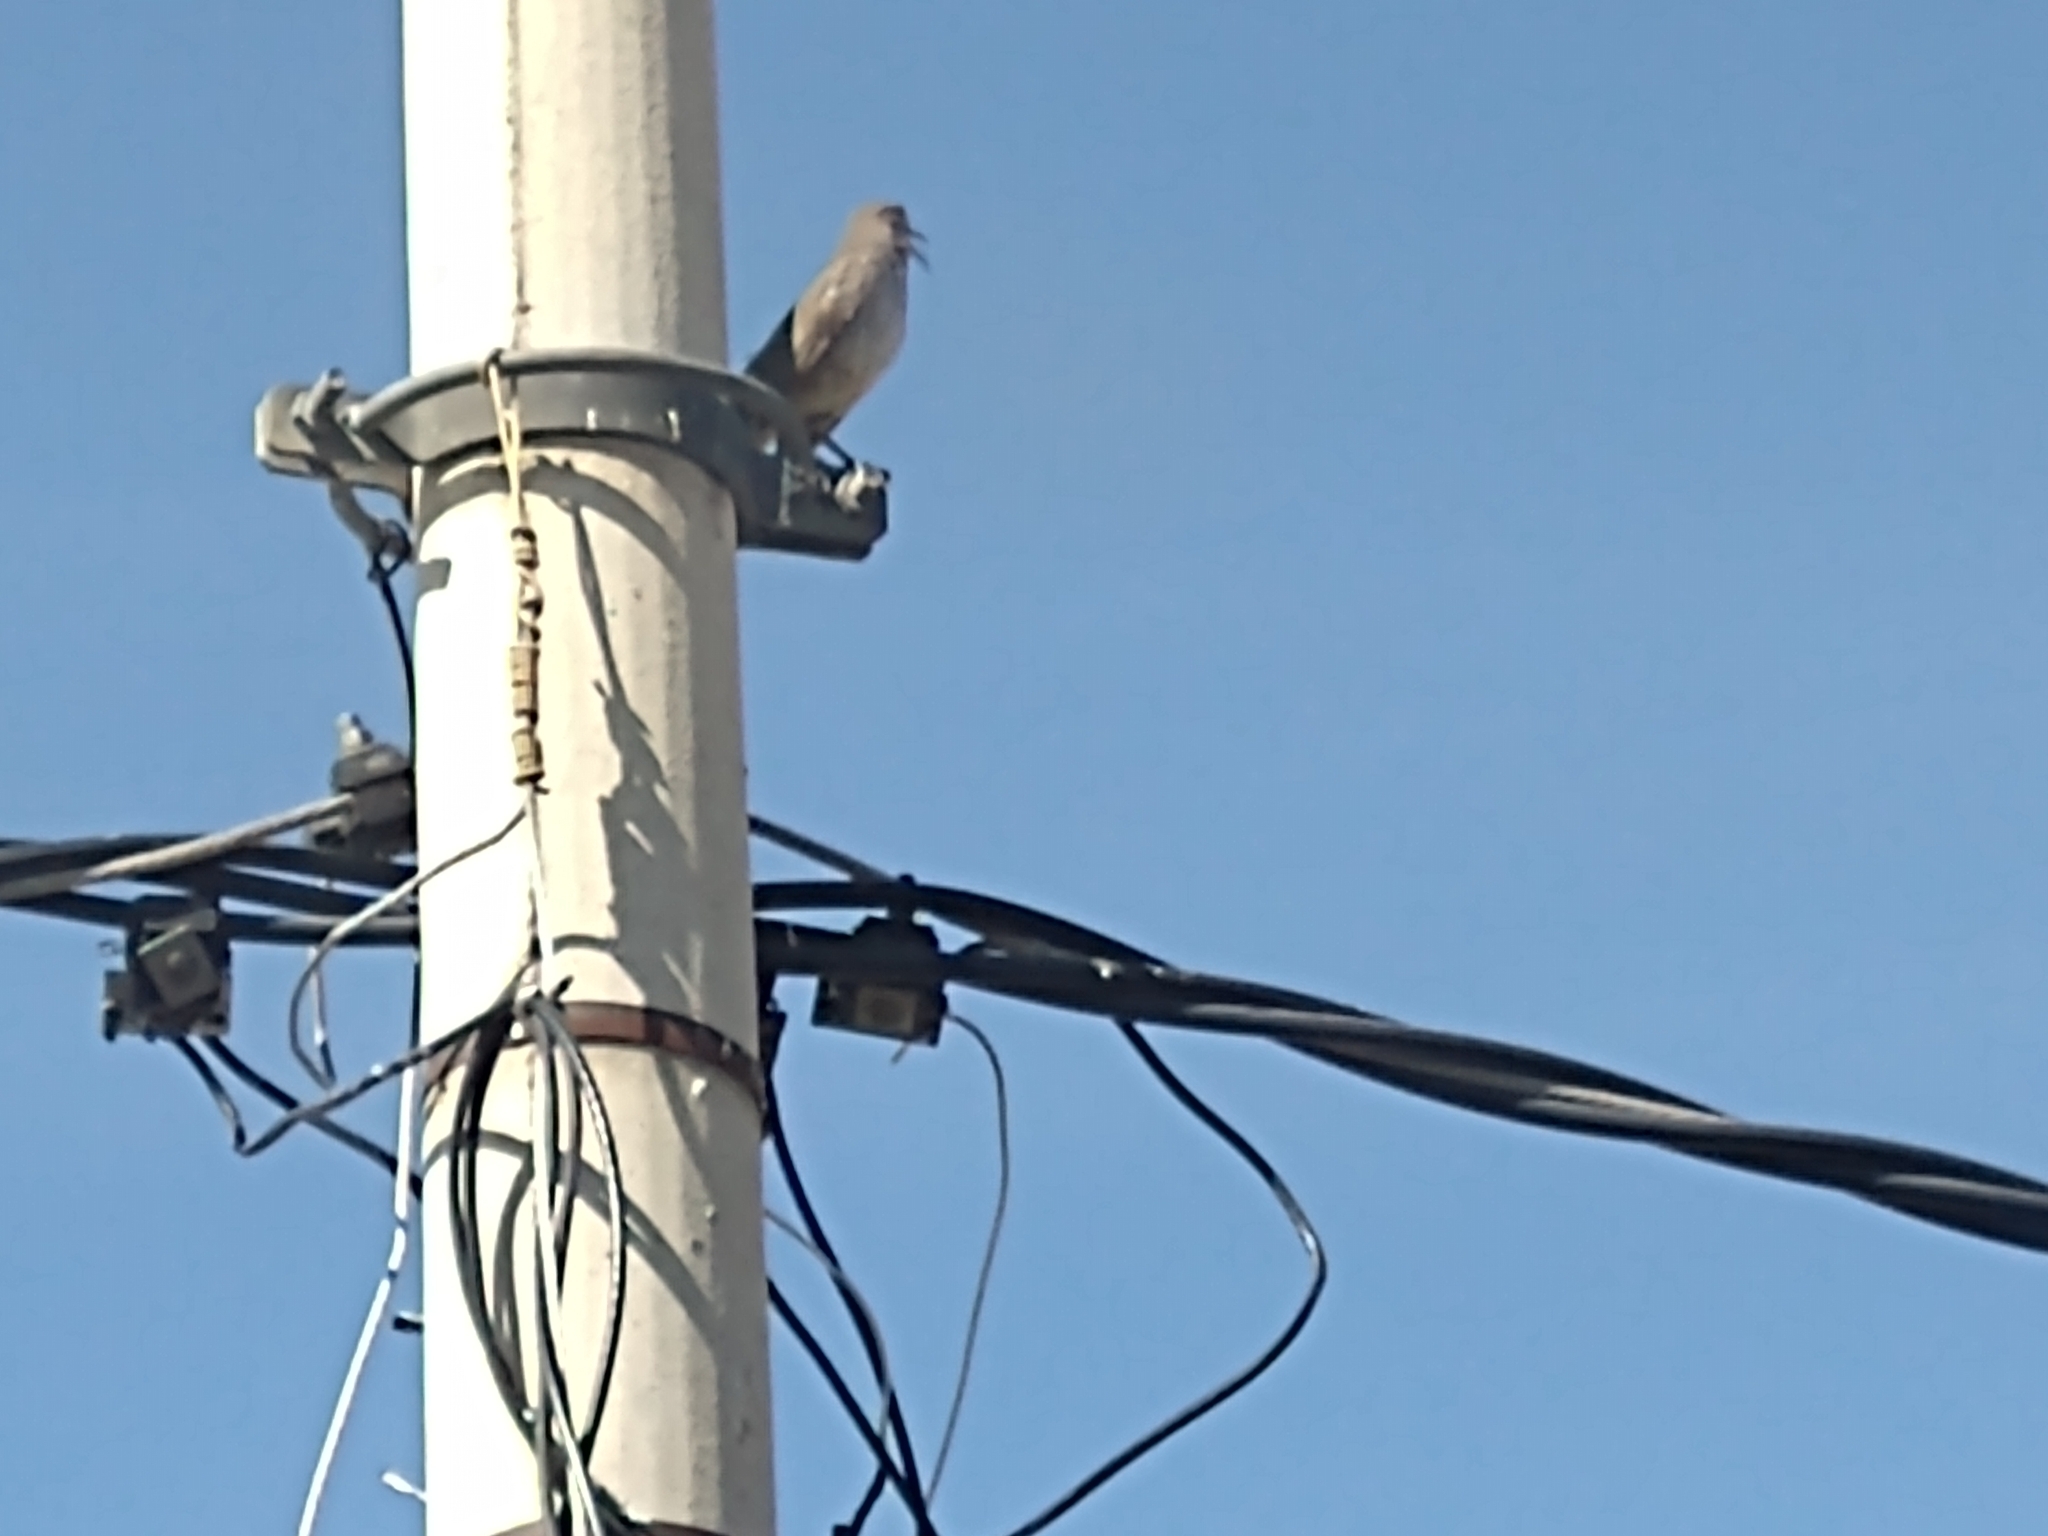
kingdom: Animalia
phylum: Chordata
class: Aves
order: Passeriformes
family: Mimidae
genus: Toxostoma
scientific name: Toxostoma curvirostre
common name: Curve-billed thrasher
